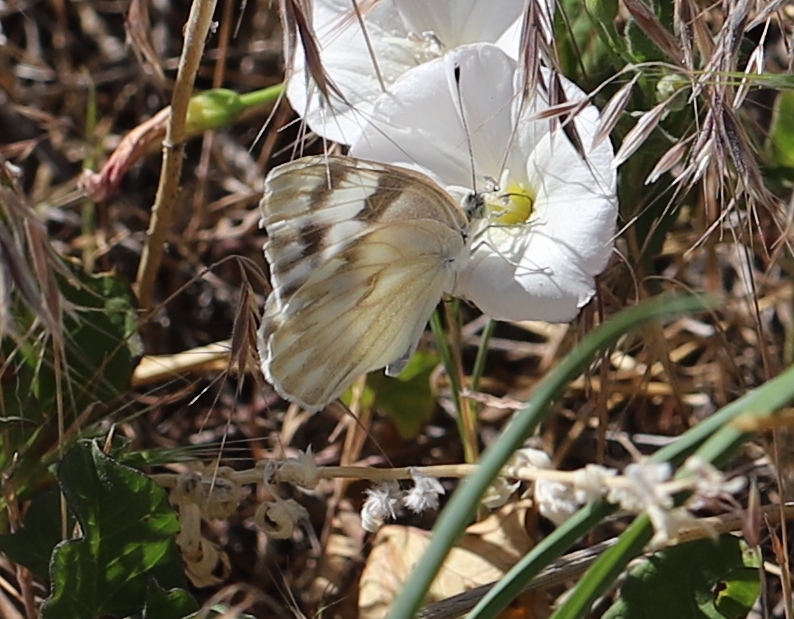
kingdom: Animalia
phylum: Arthropoda
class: Insecta
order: Lepidoptera
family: Pieridae
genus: Pontia
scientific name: Pontia protodice
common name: Checkered white
